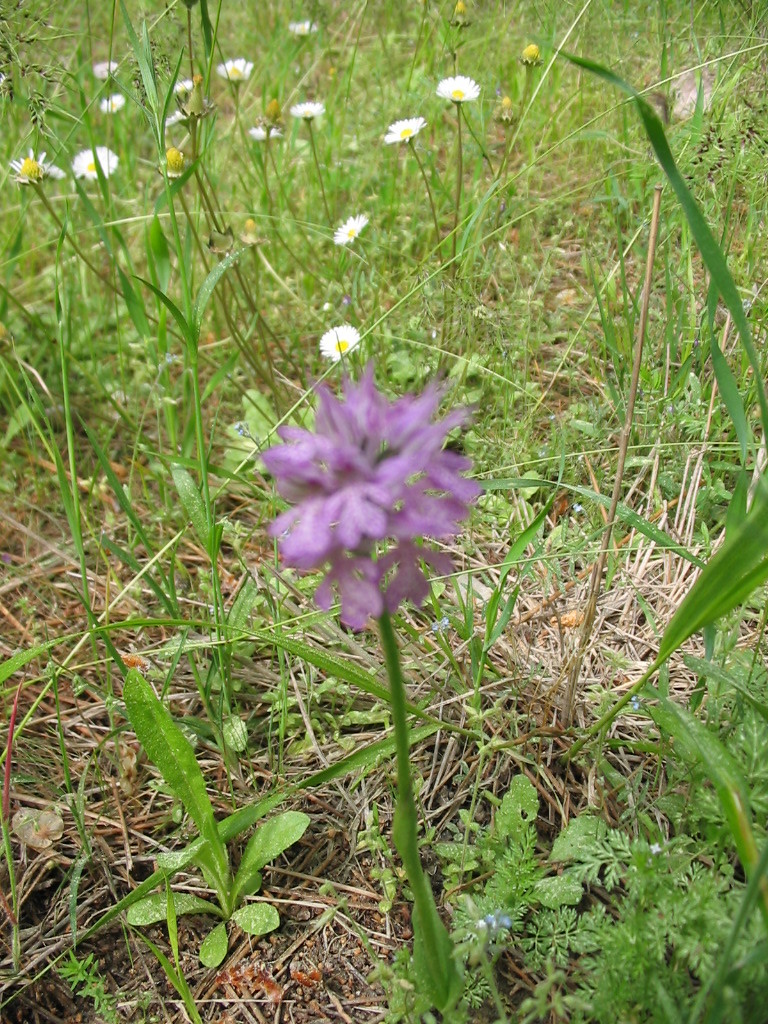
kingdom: Plantae
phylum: Tracheophyta
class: Liliopsida
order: Asparagales
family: Orchidaceae
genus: Neotinea
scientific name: Neotinea tridentata
